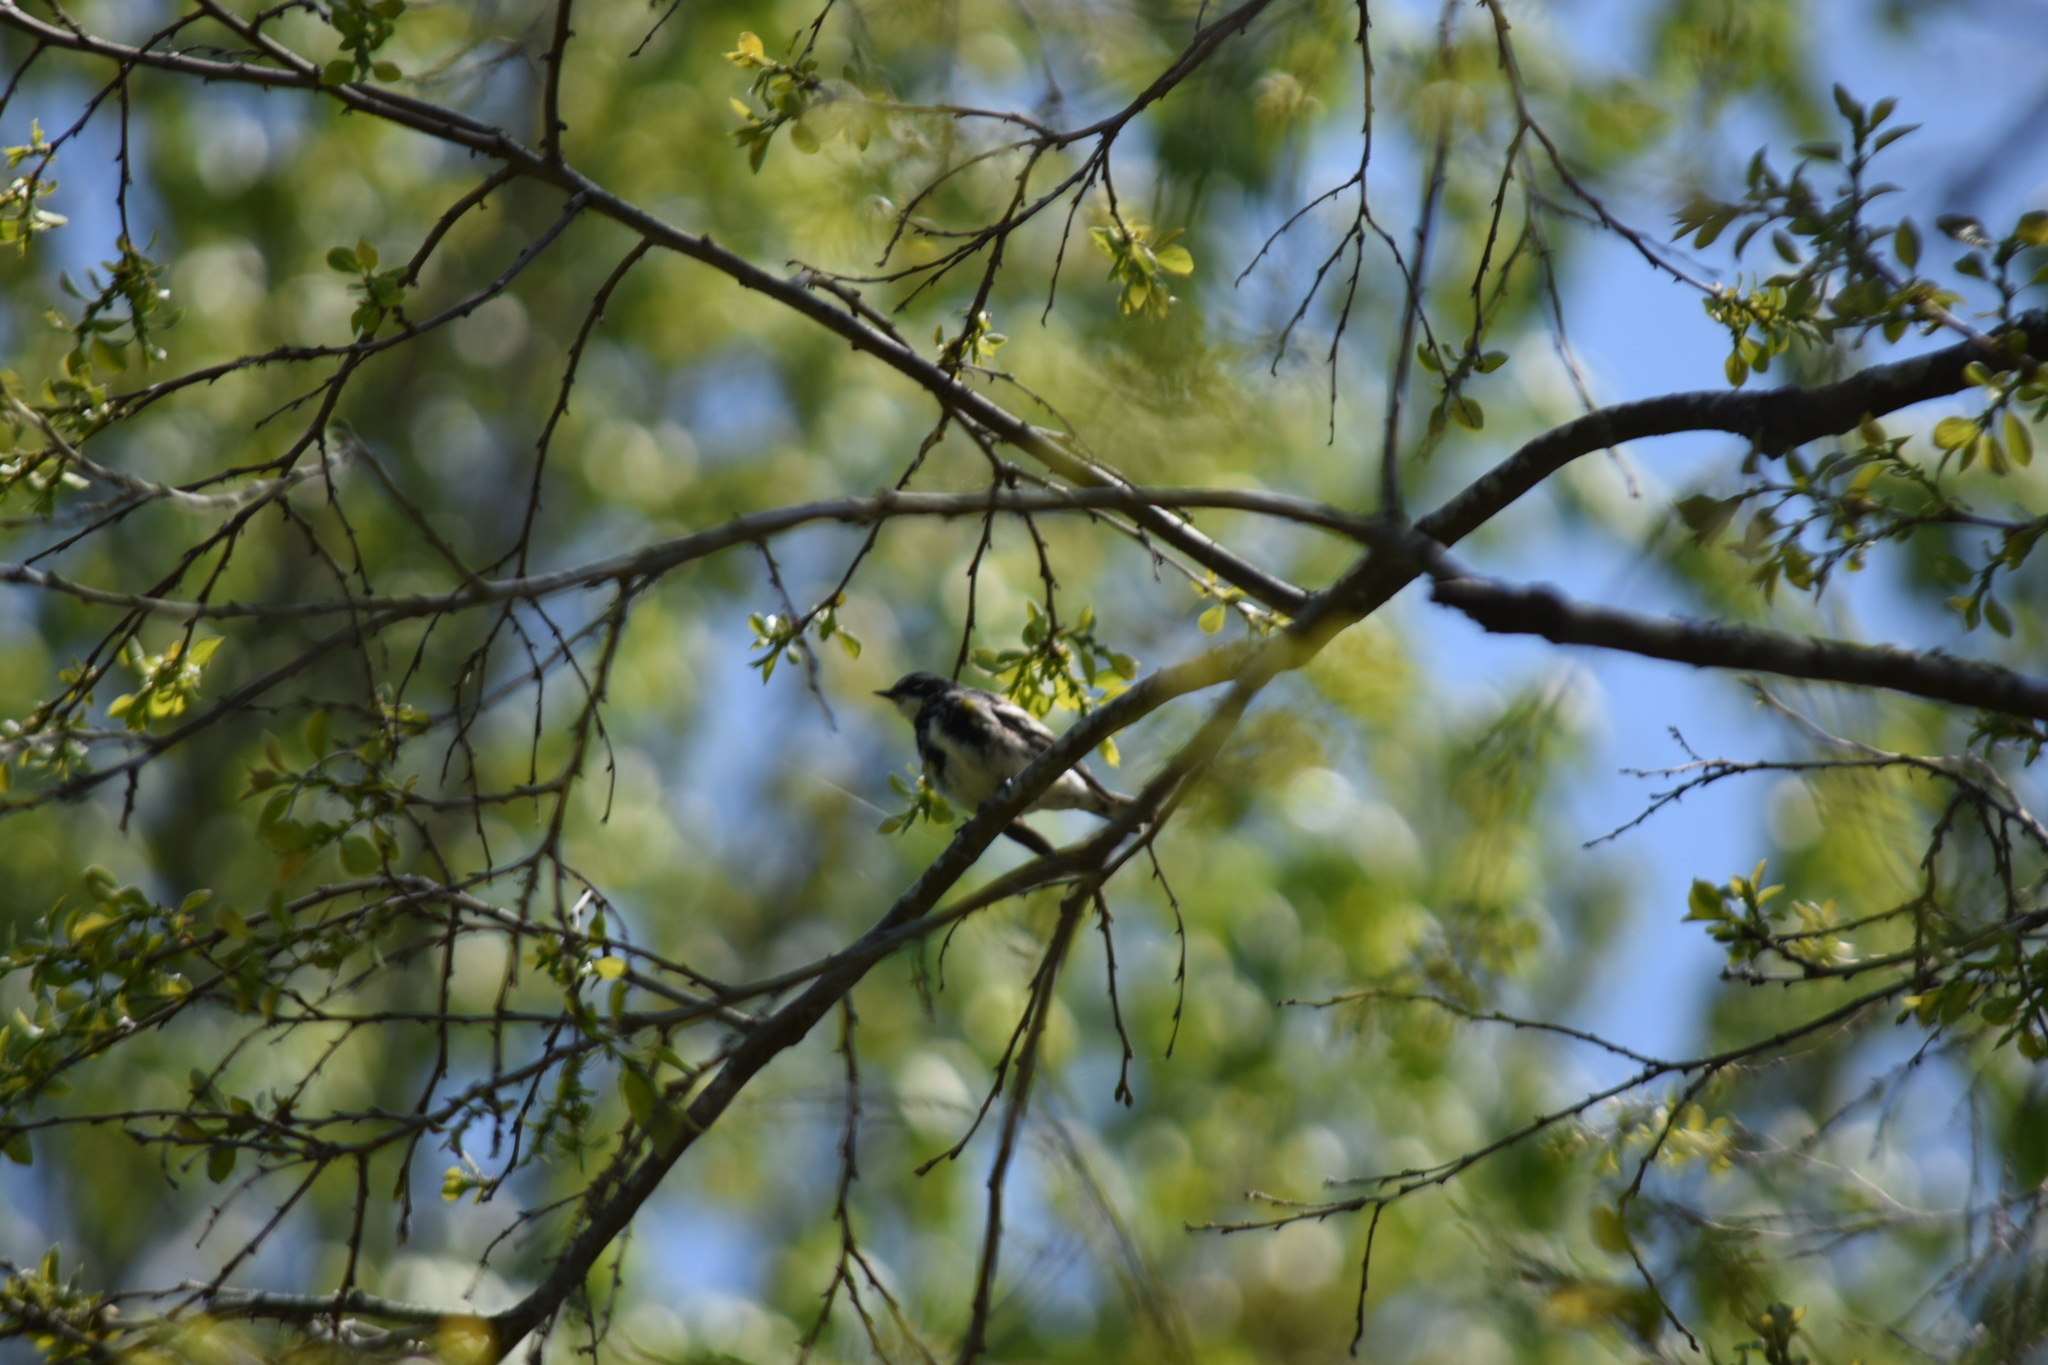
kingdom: Animalia
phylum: Chordata
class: Aves
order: Passeriformes
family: Parulidae
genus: Setophaga
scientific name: Setophaga coronata
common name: Myrtle warbler
